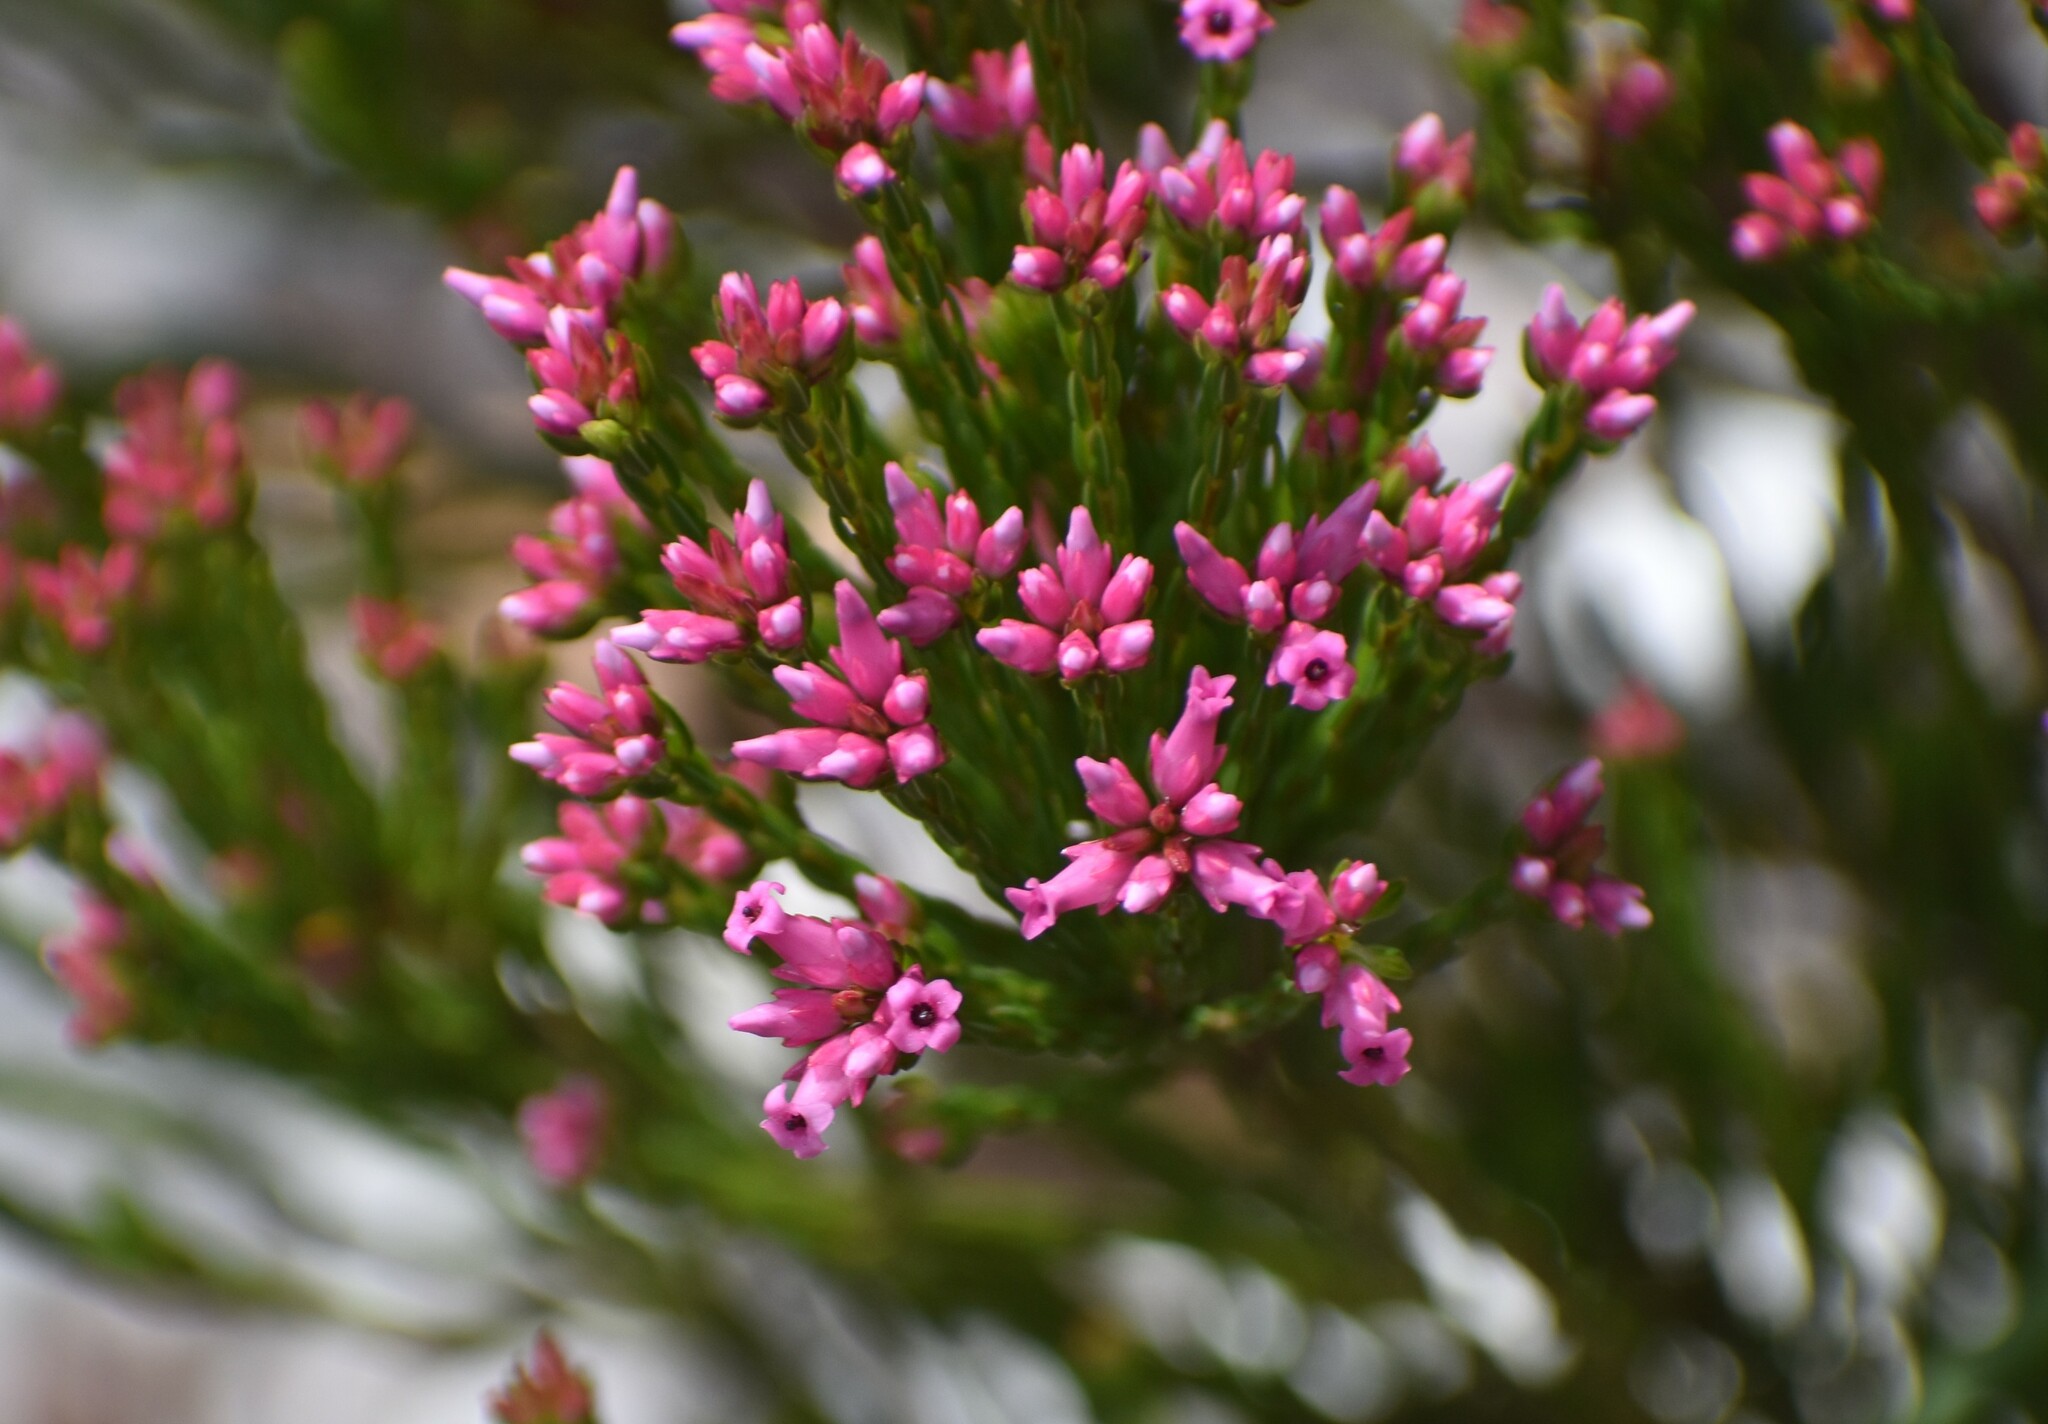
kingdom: Plantae
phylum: Tracheophyta
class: Magnoliopsida
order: Ericales
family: Ericaceae
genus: Erica
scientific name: Erica steinbergiana
